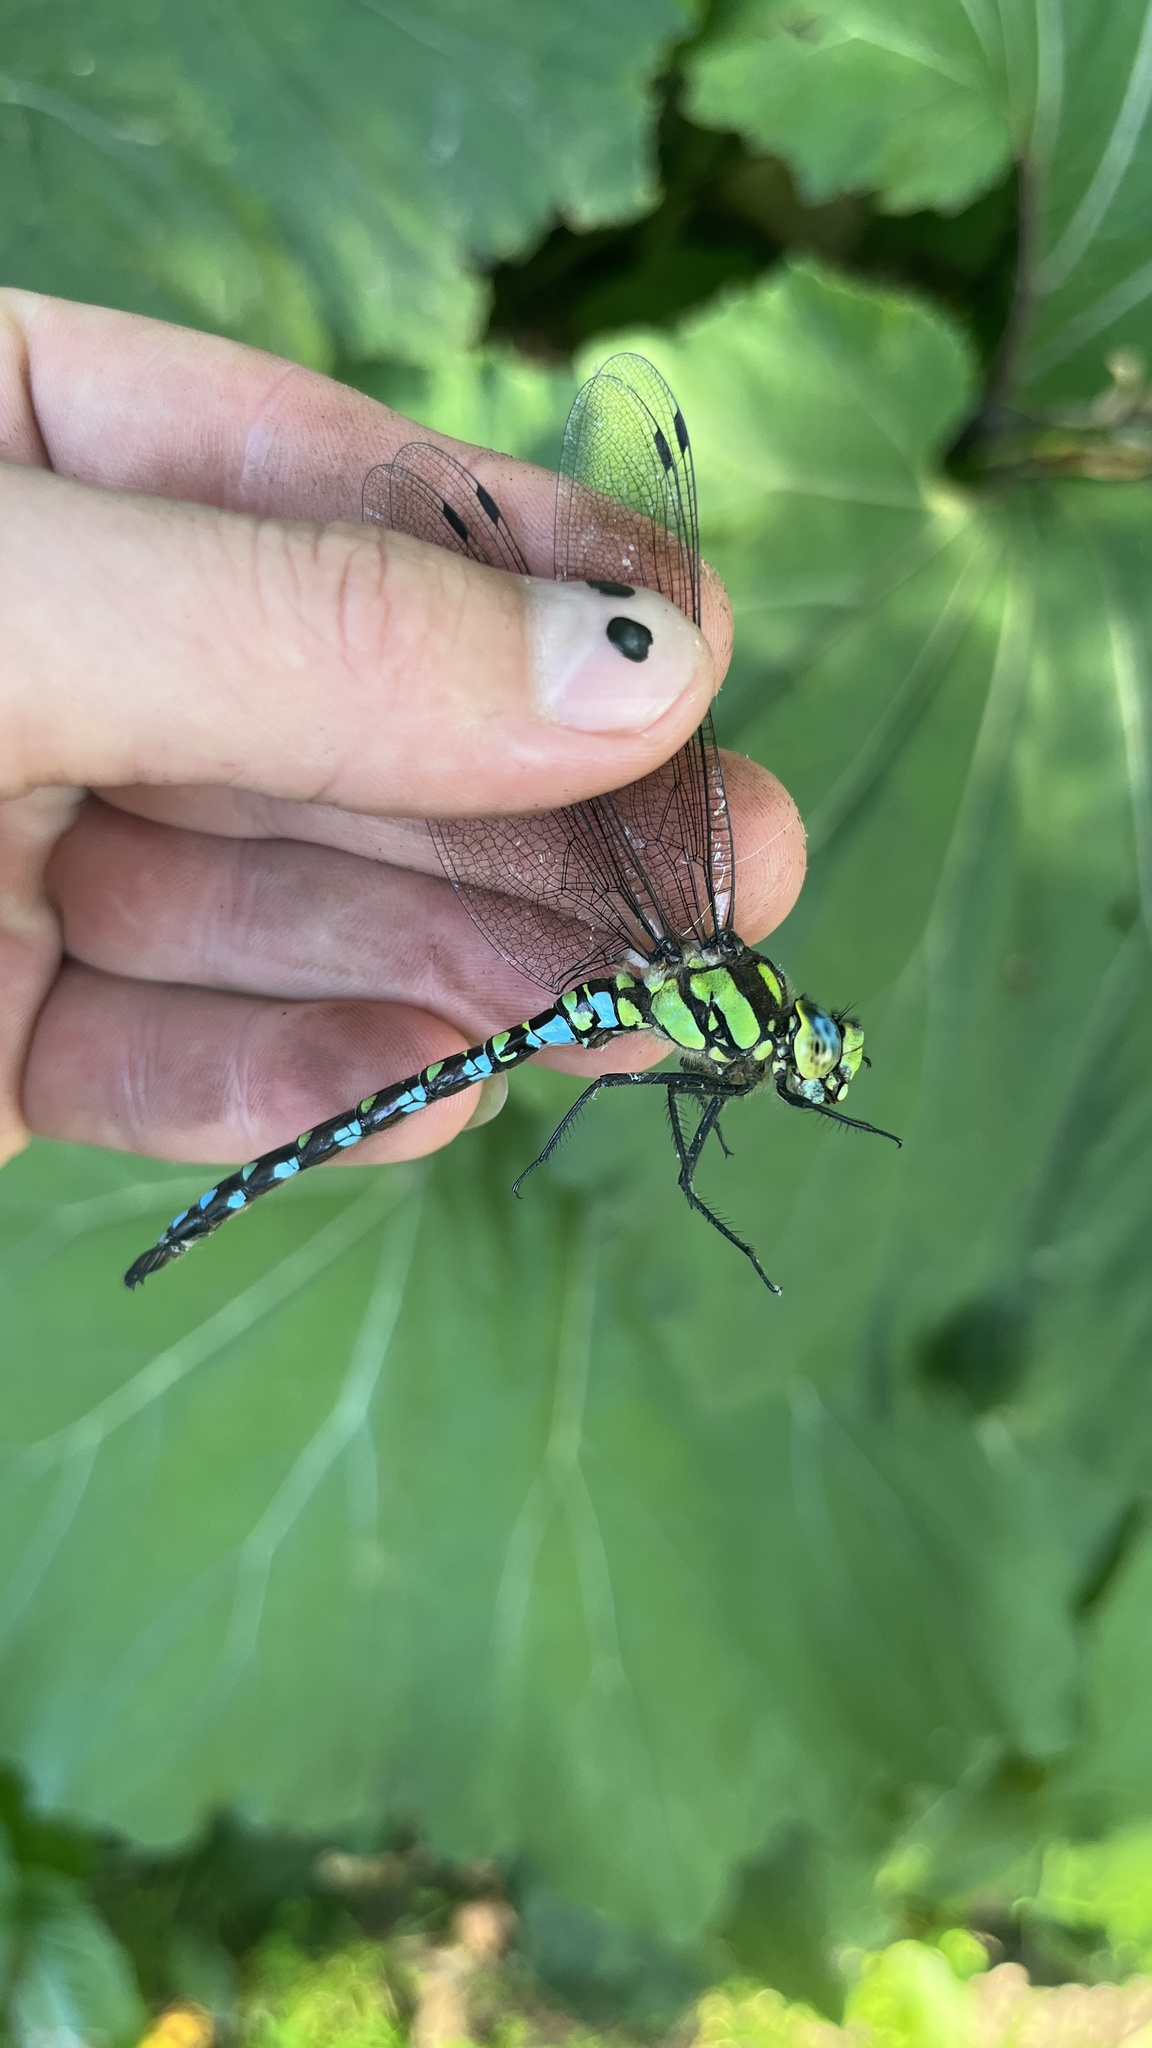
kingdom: Animalia
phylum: Arthropoda
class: Insecta
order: Odonata
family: Aeshnidae
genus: Aeshna
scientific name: Aeshna cyanea
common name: Southern hawker
